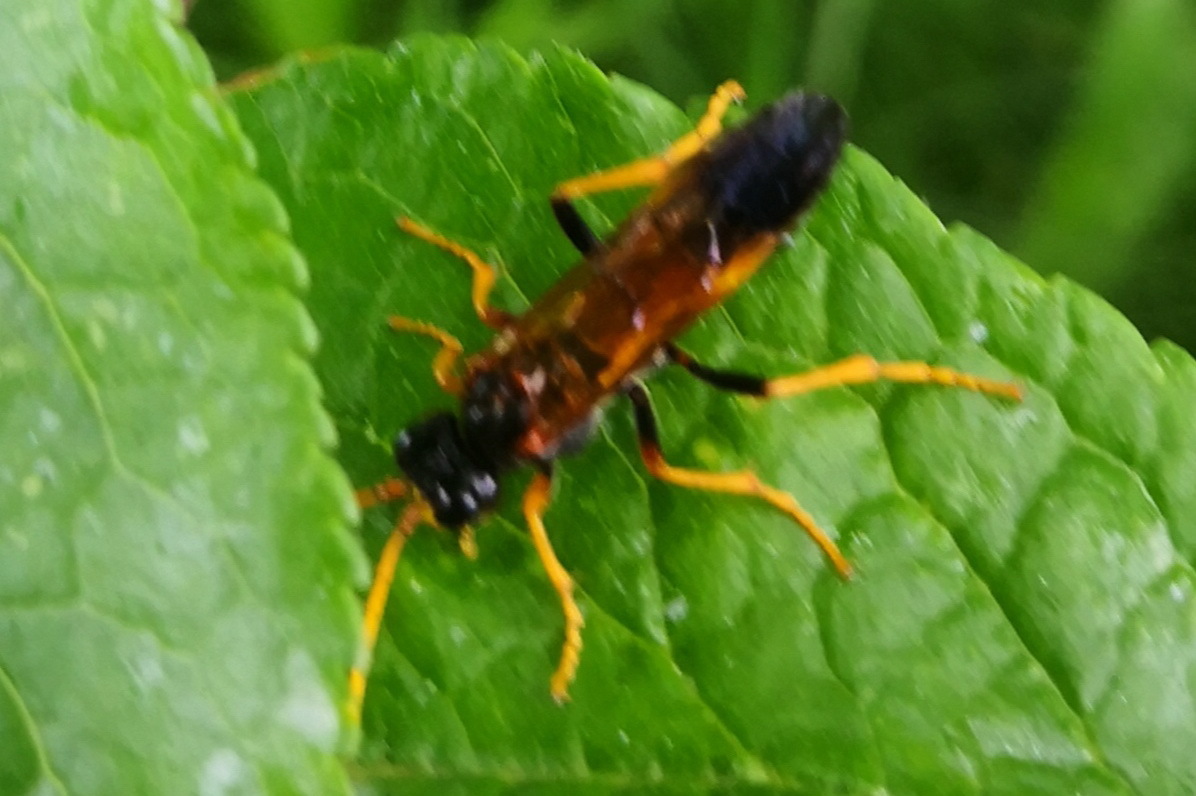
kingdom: Animalia
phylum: Arthropoda
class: Insecta
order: Hymenoptera
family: Tenthredinidae
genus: Tenthredo
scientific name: Tenthredo campestris
